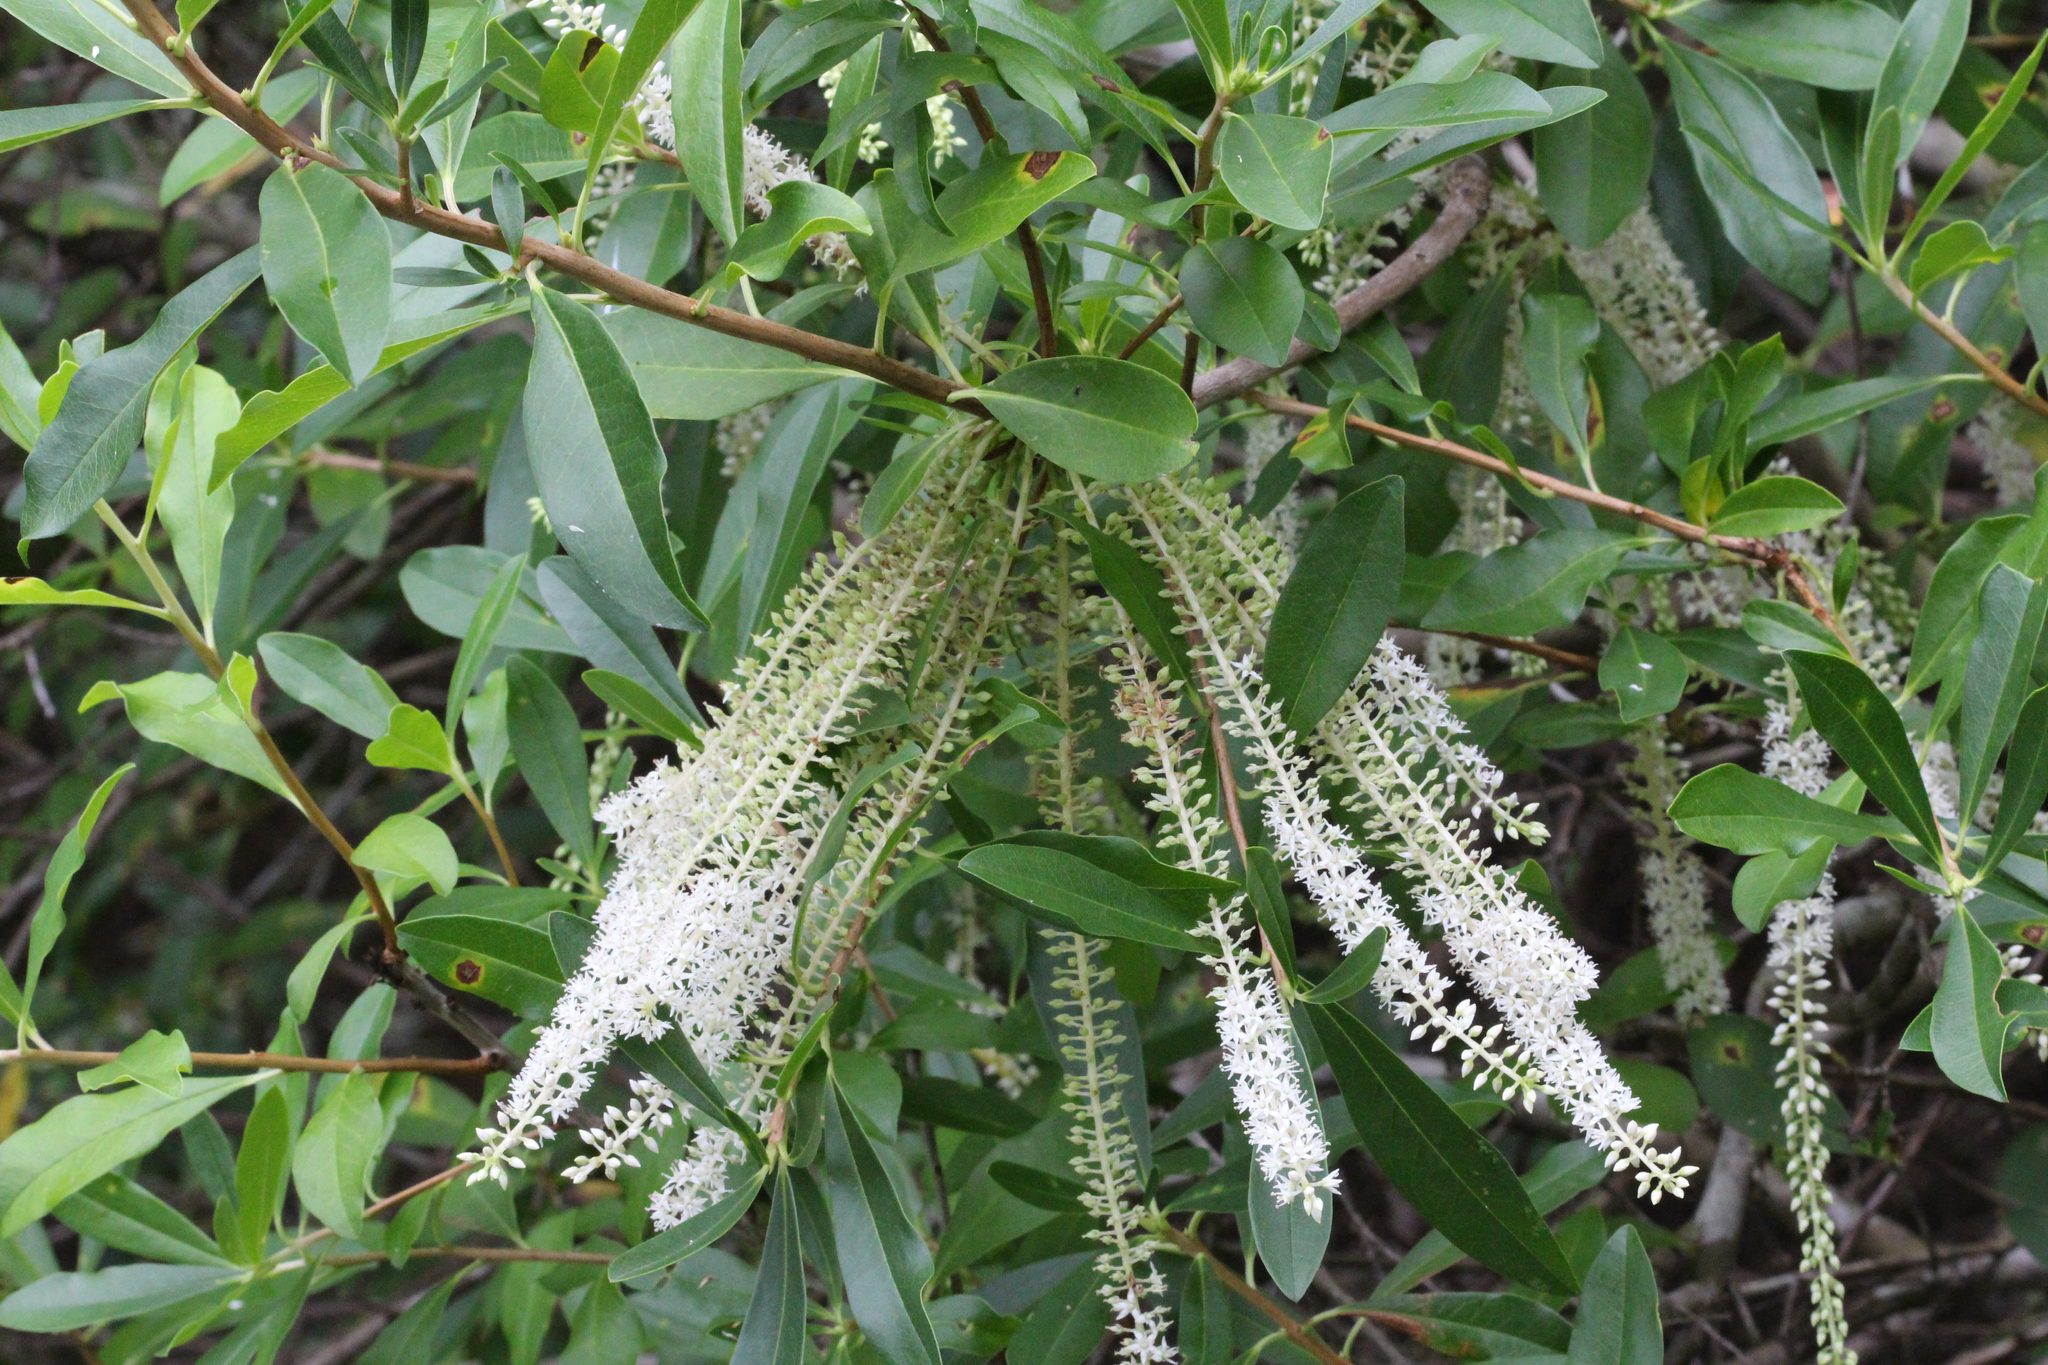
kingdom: Plantae
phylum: Tracheophyta
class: Magnoliopsida
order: Ericales
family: Cyrillaceae
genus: Cyrilla
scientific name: Cyrilla racemiflora
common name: Black titi
